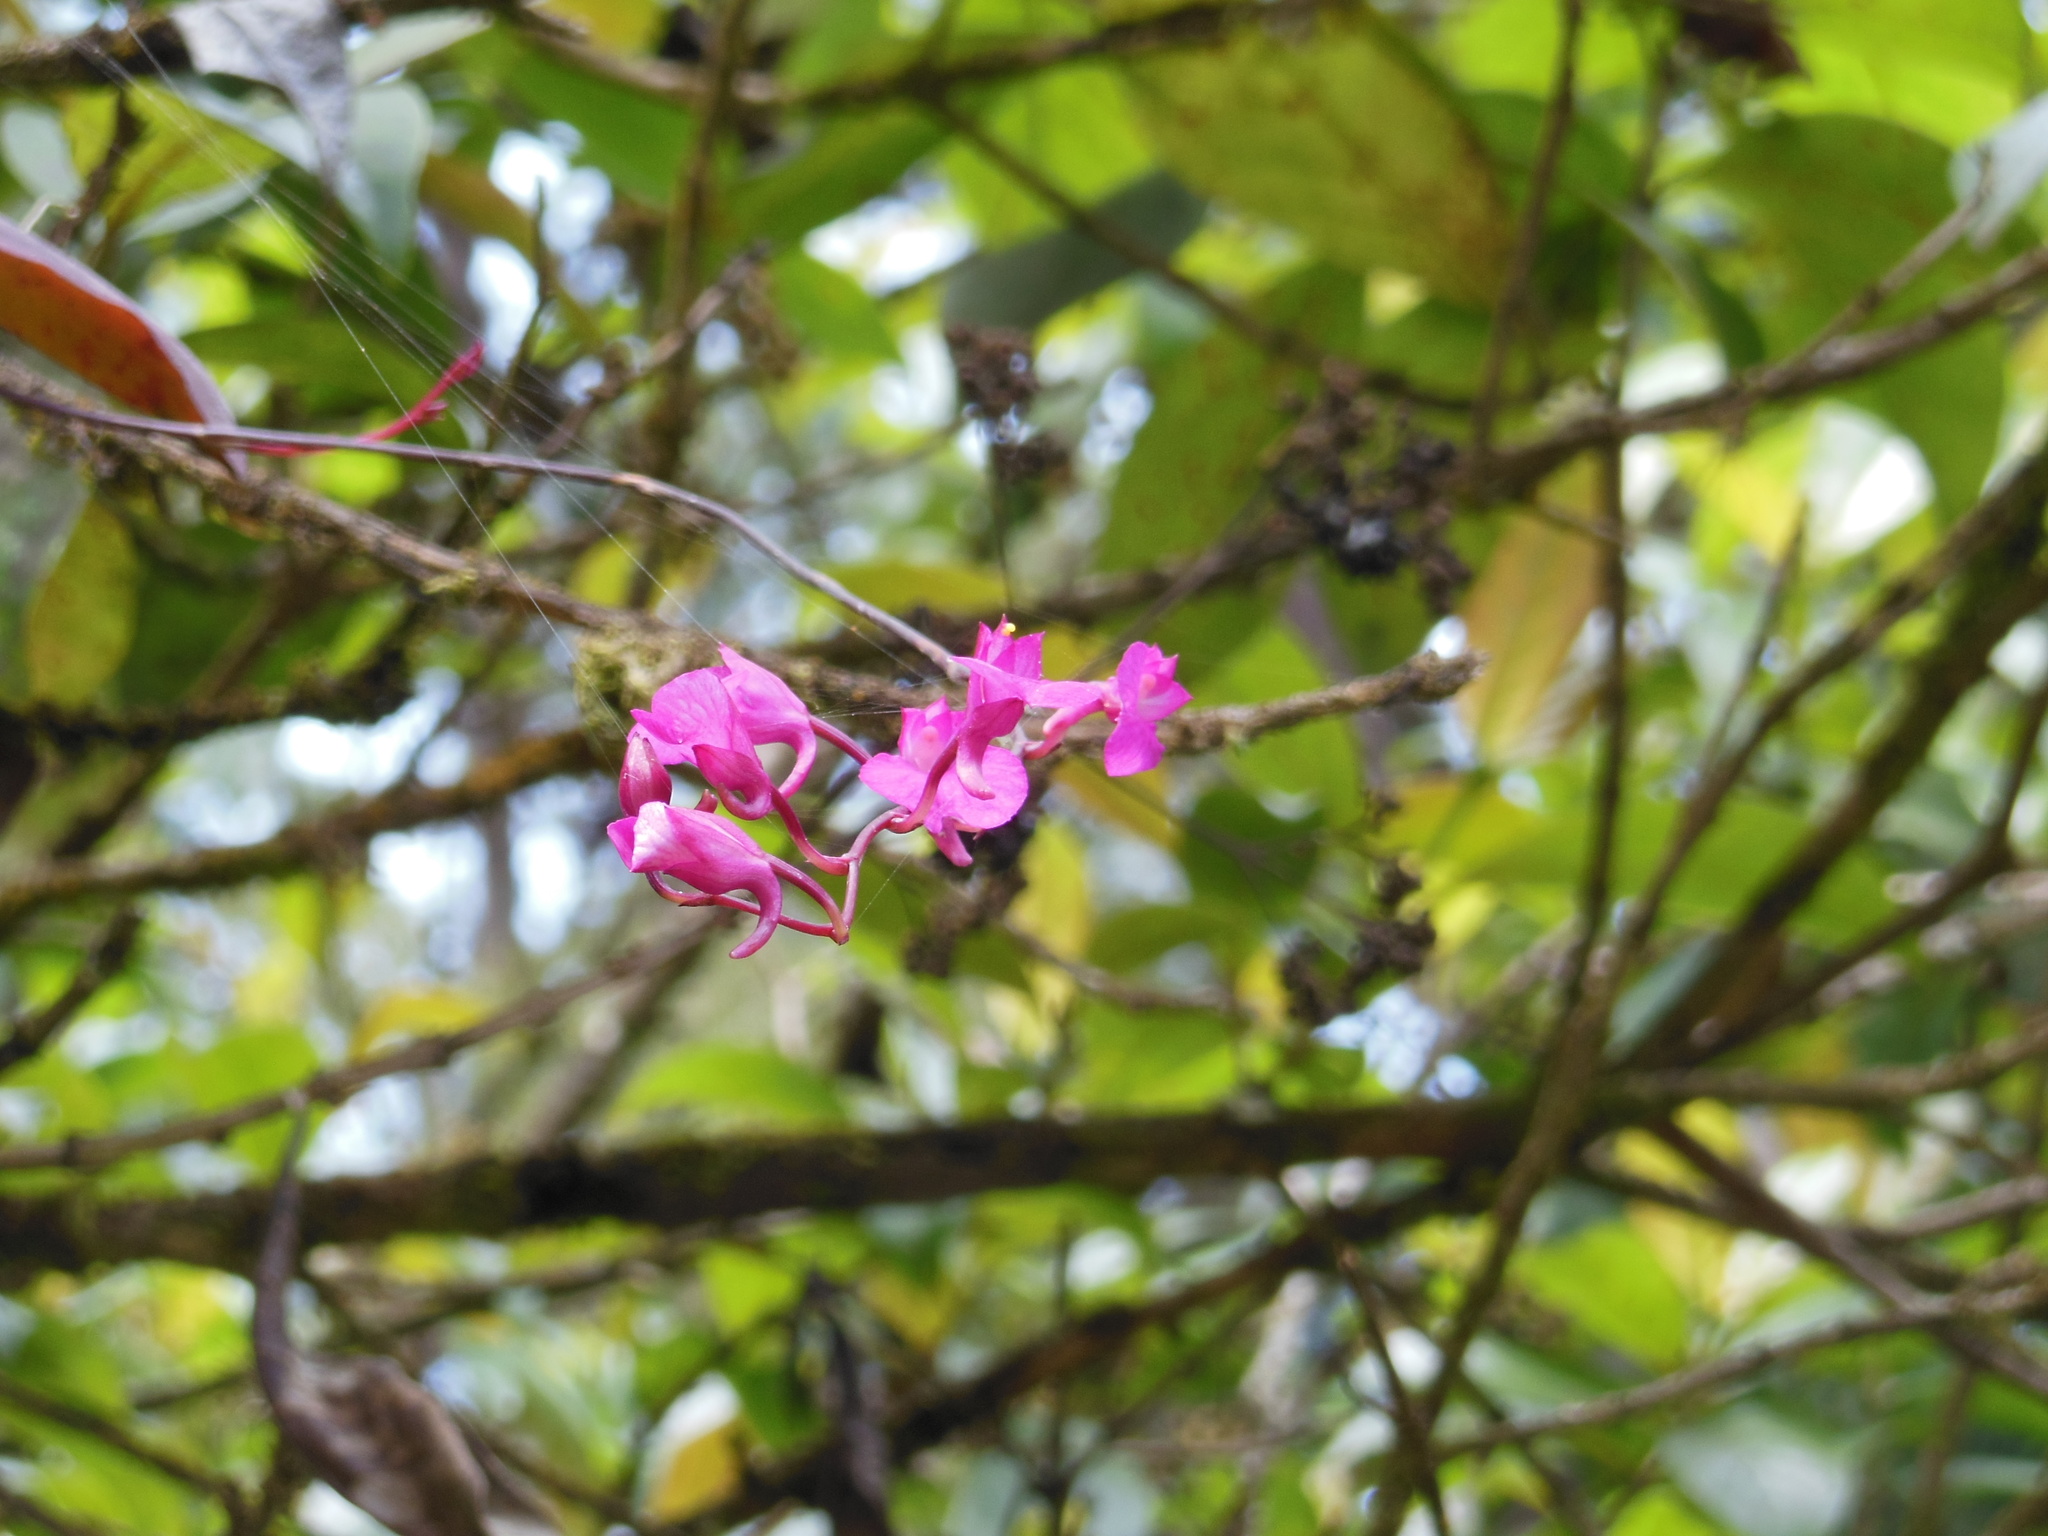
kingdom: Plantae
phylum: Tracheophyta
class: Liliopsida
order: Asparagales
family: Orchidaceae
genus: Comparettia
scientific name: Comparettia falcata
